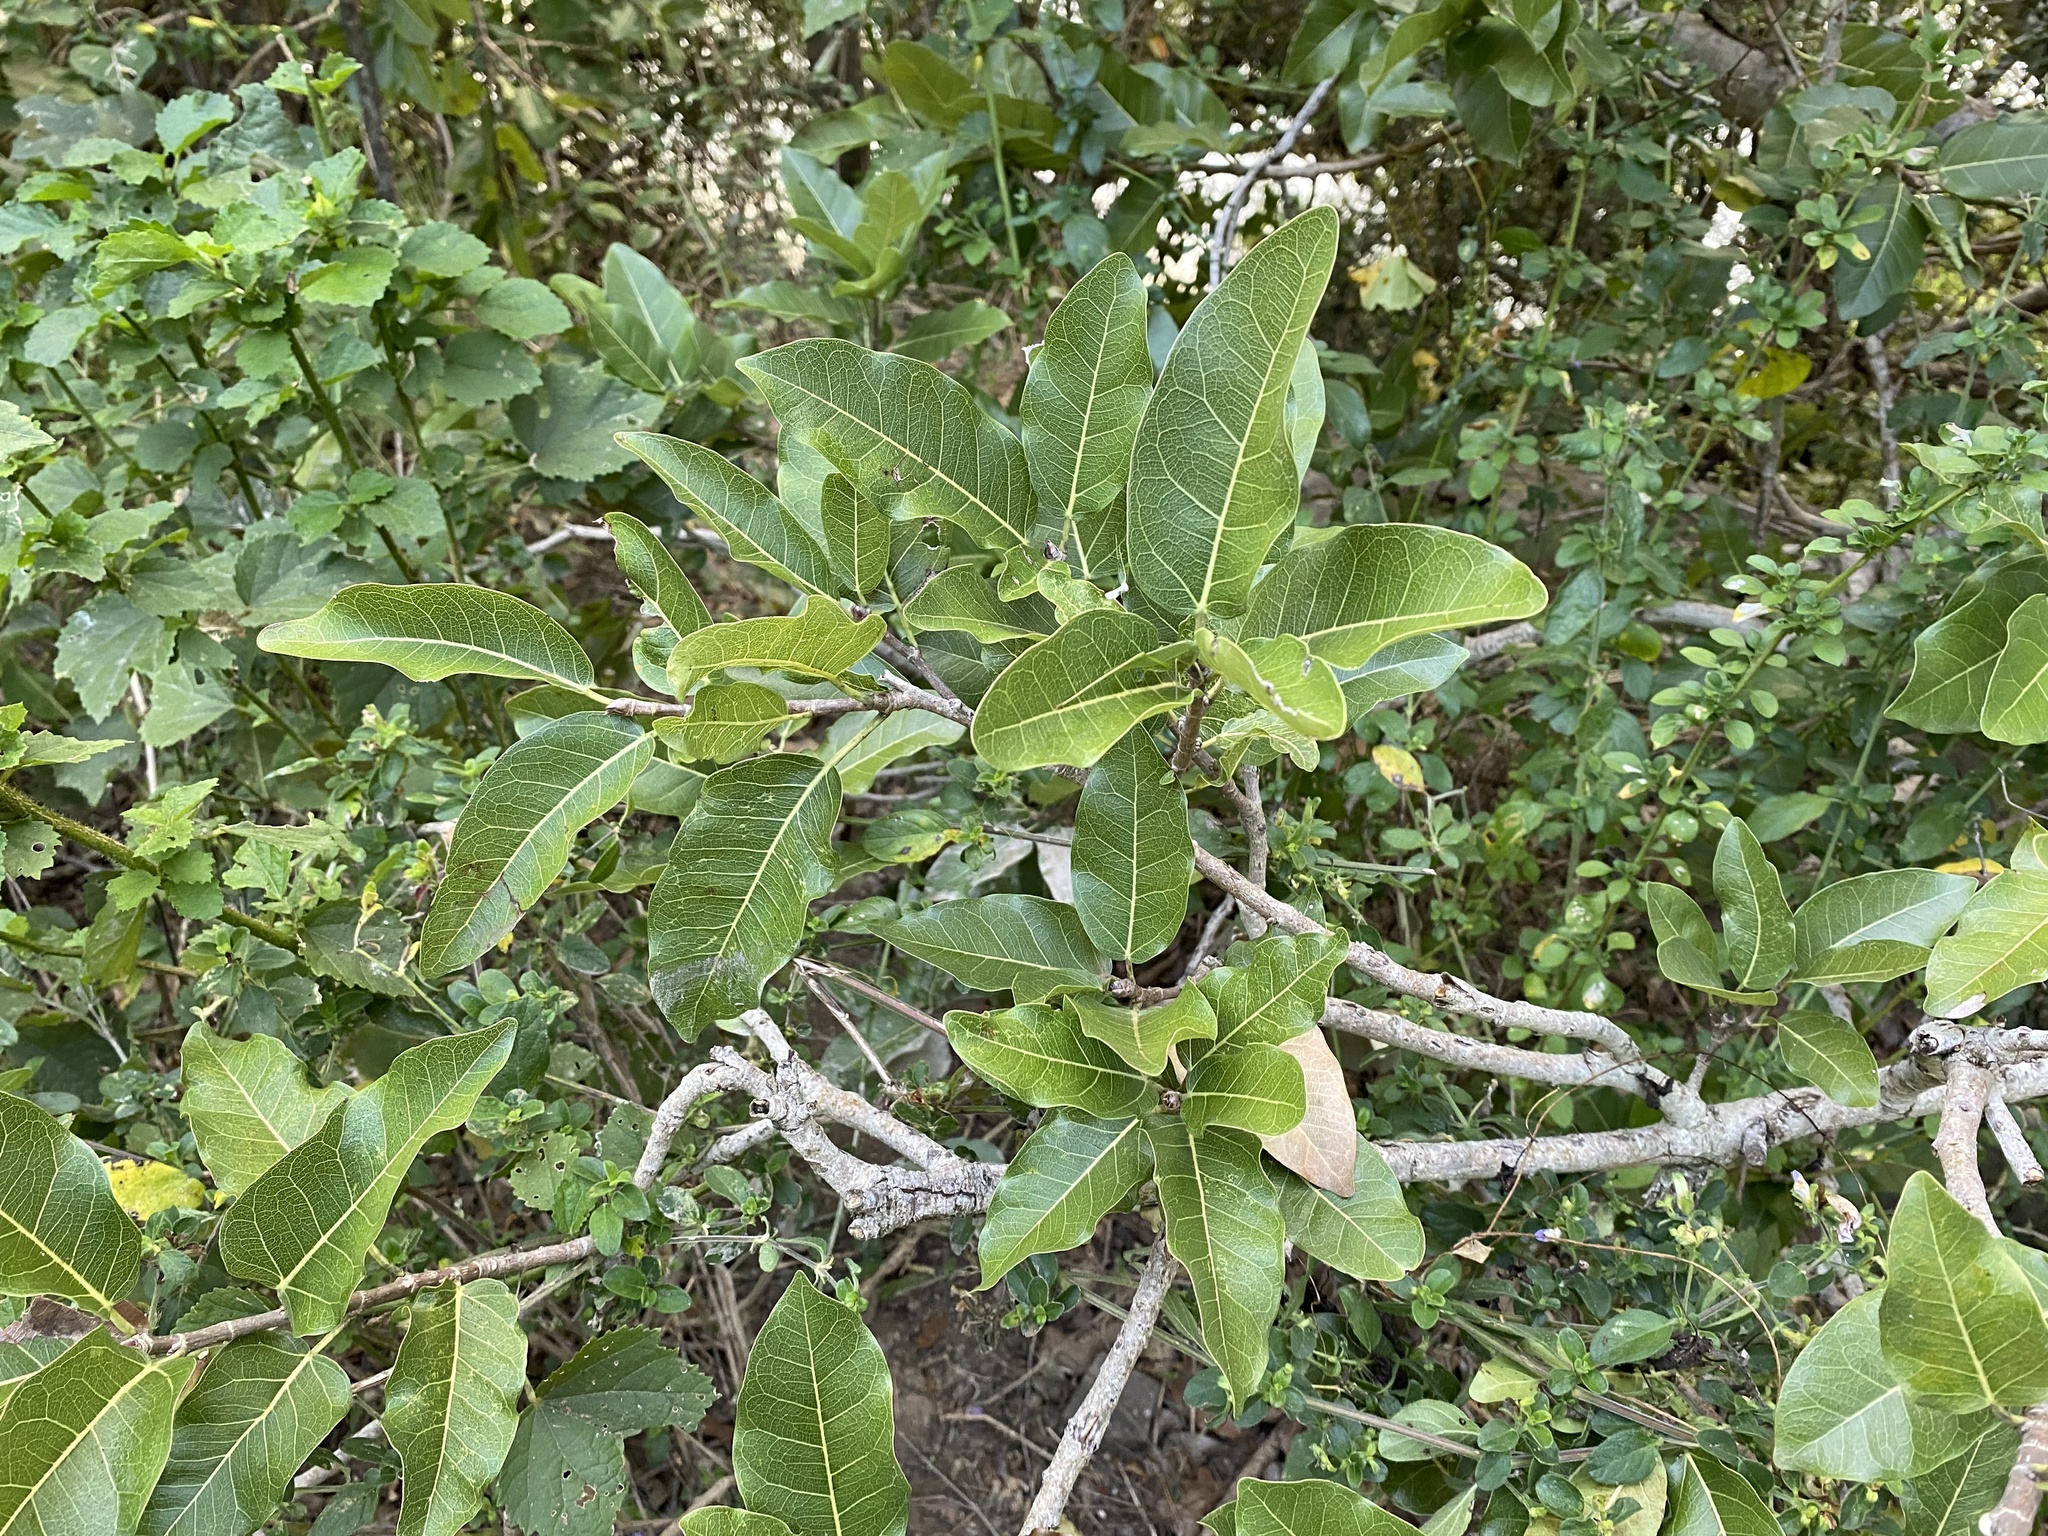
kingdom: Plantae
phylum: Tracheophyta
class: Magnoliopsida
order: Rosales
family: Moraceae
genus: Ficus
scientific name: Ficus ingens
